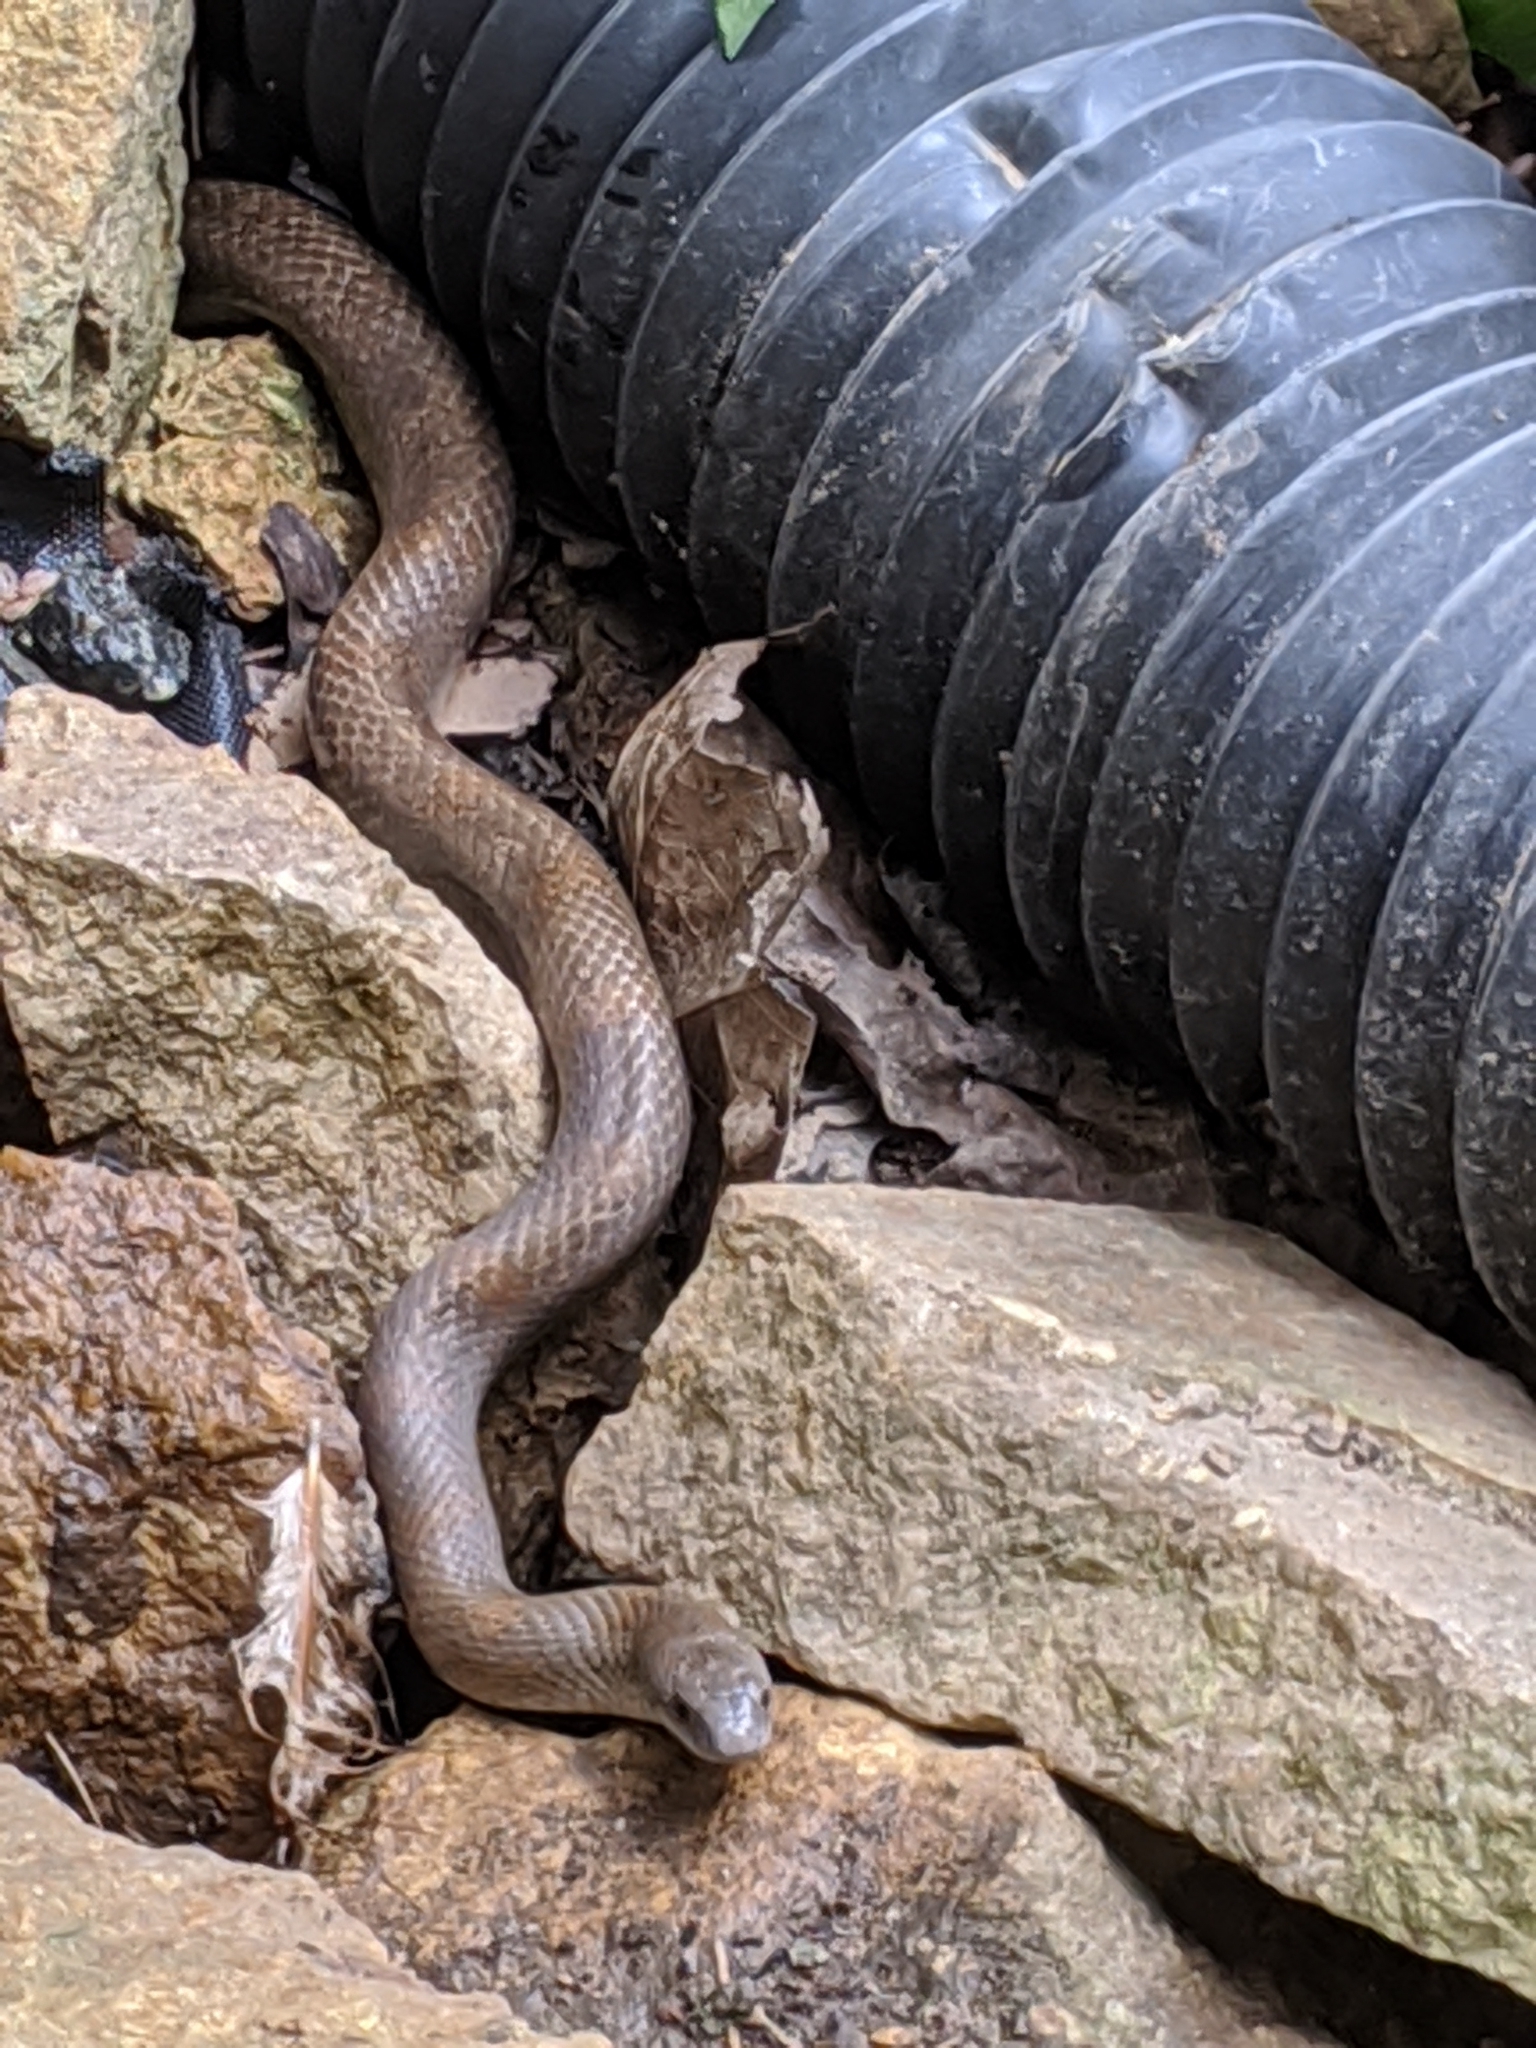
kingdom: Animalia
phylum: Chordata
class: Squamata
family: Colubridae
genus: Lampropeltis
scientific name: Lampropeltis rhombomaculata
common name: Mole kingsnake
